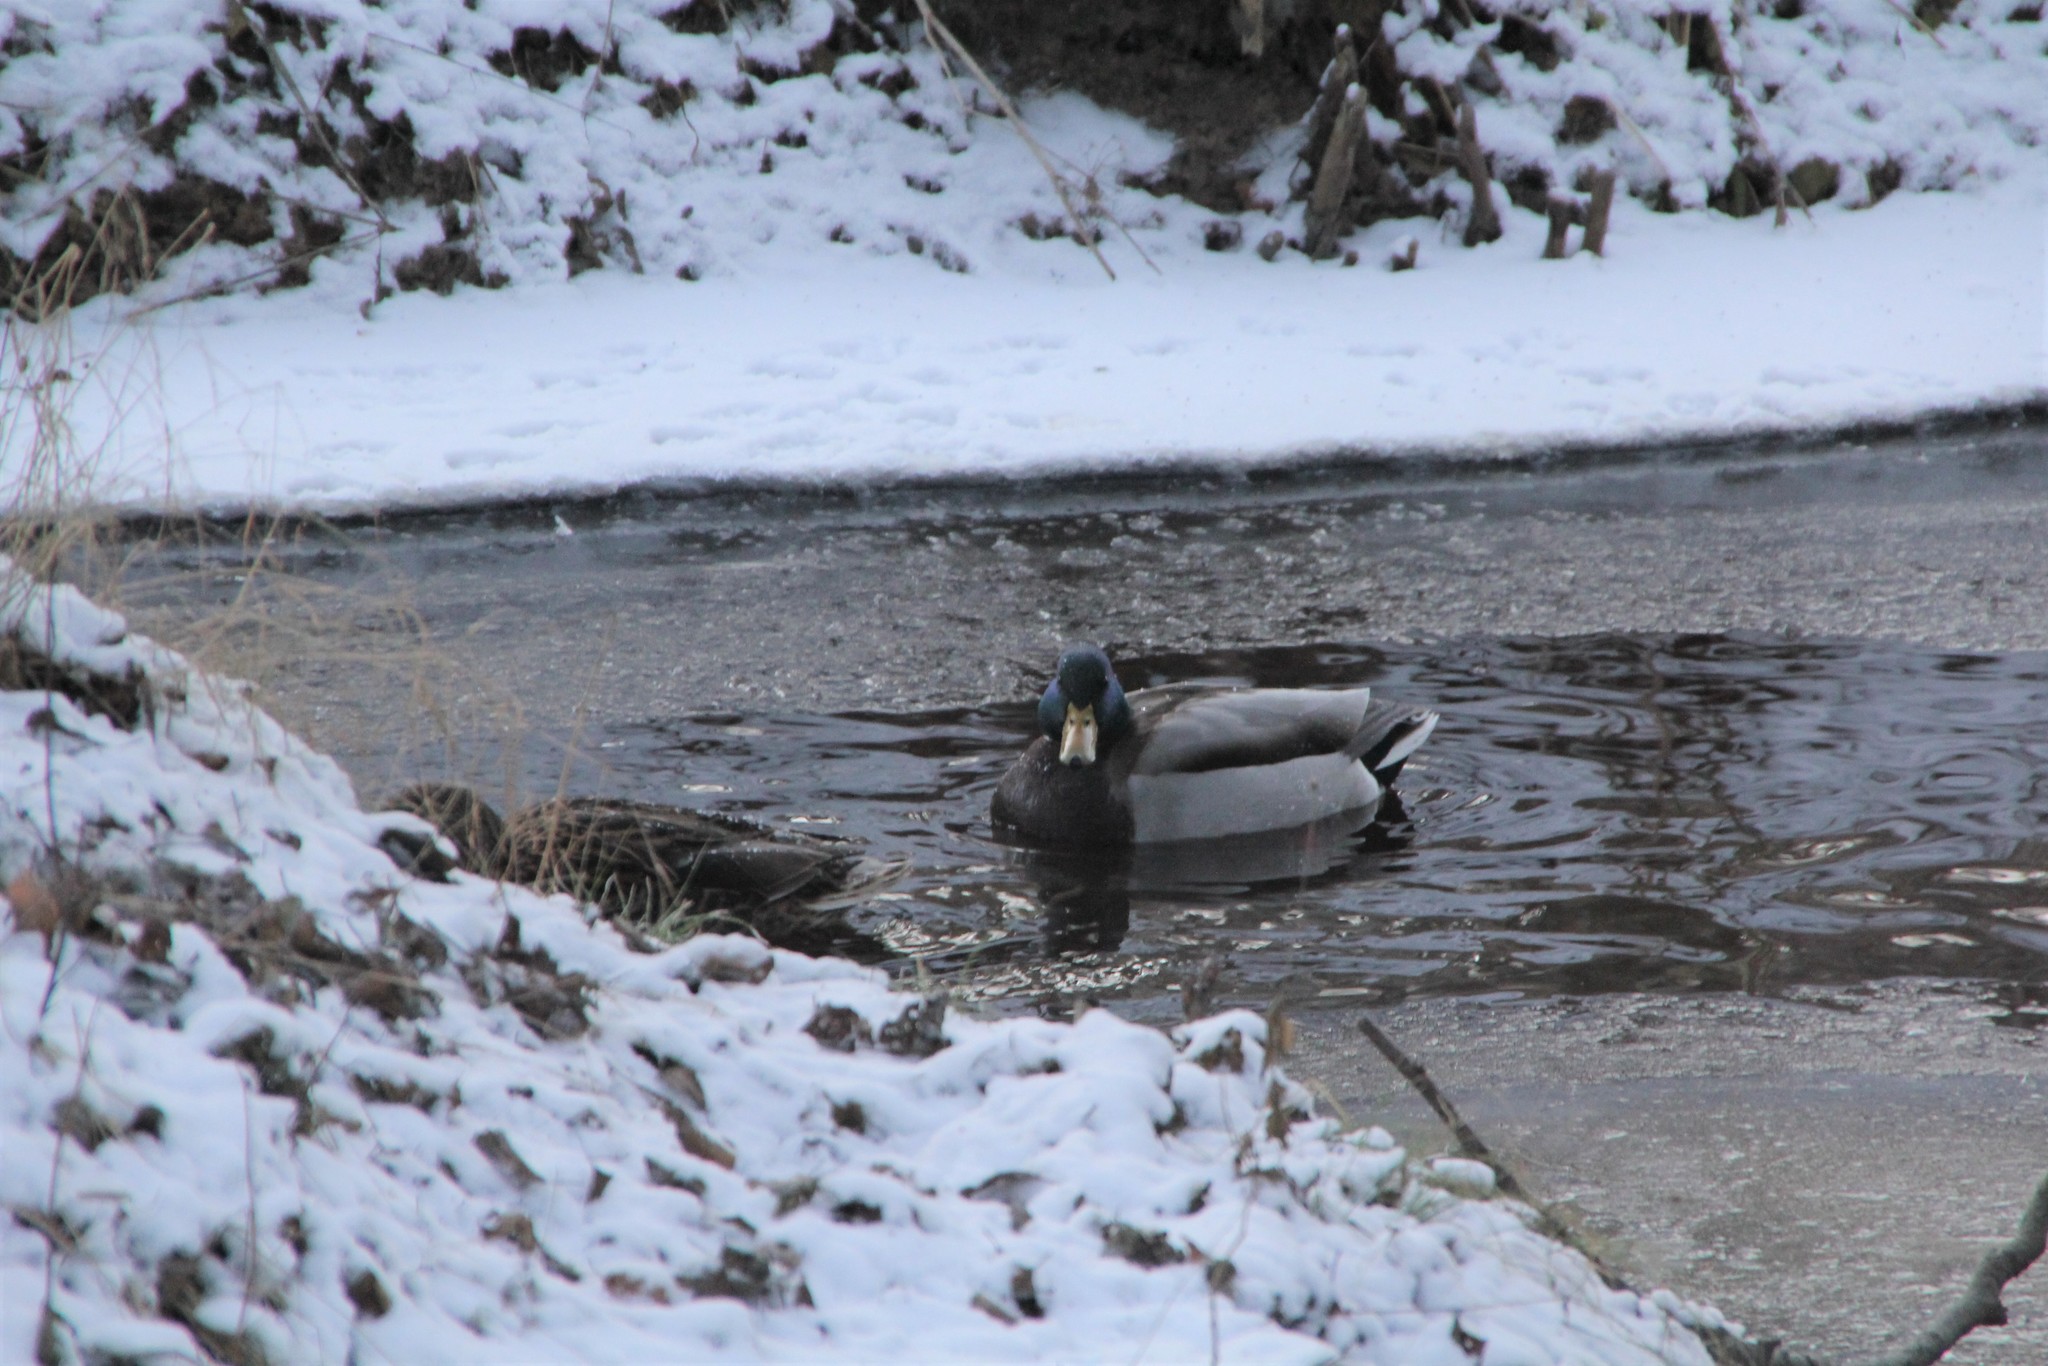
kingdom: Animalia
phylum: Chordata
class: Aves
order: Anseriformes
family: Anatidae
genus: Anas
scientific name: Anas platyrhynchos
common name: Mallard
